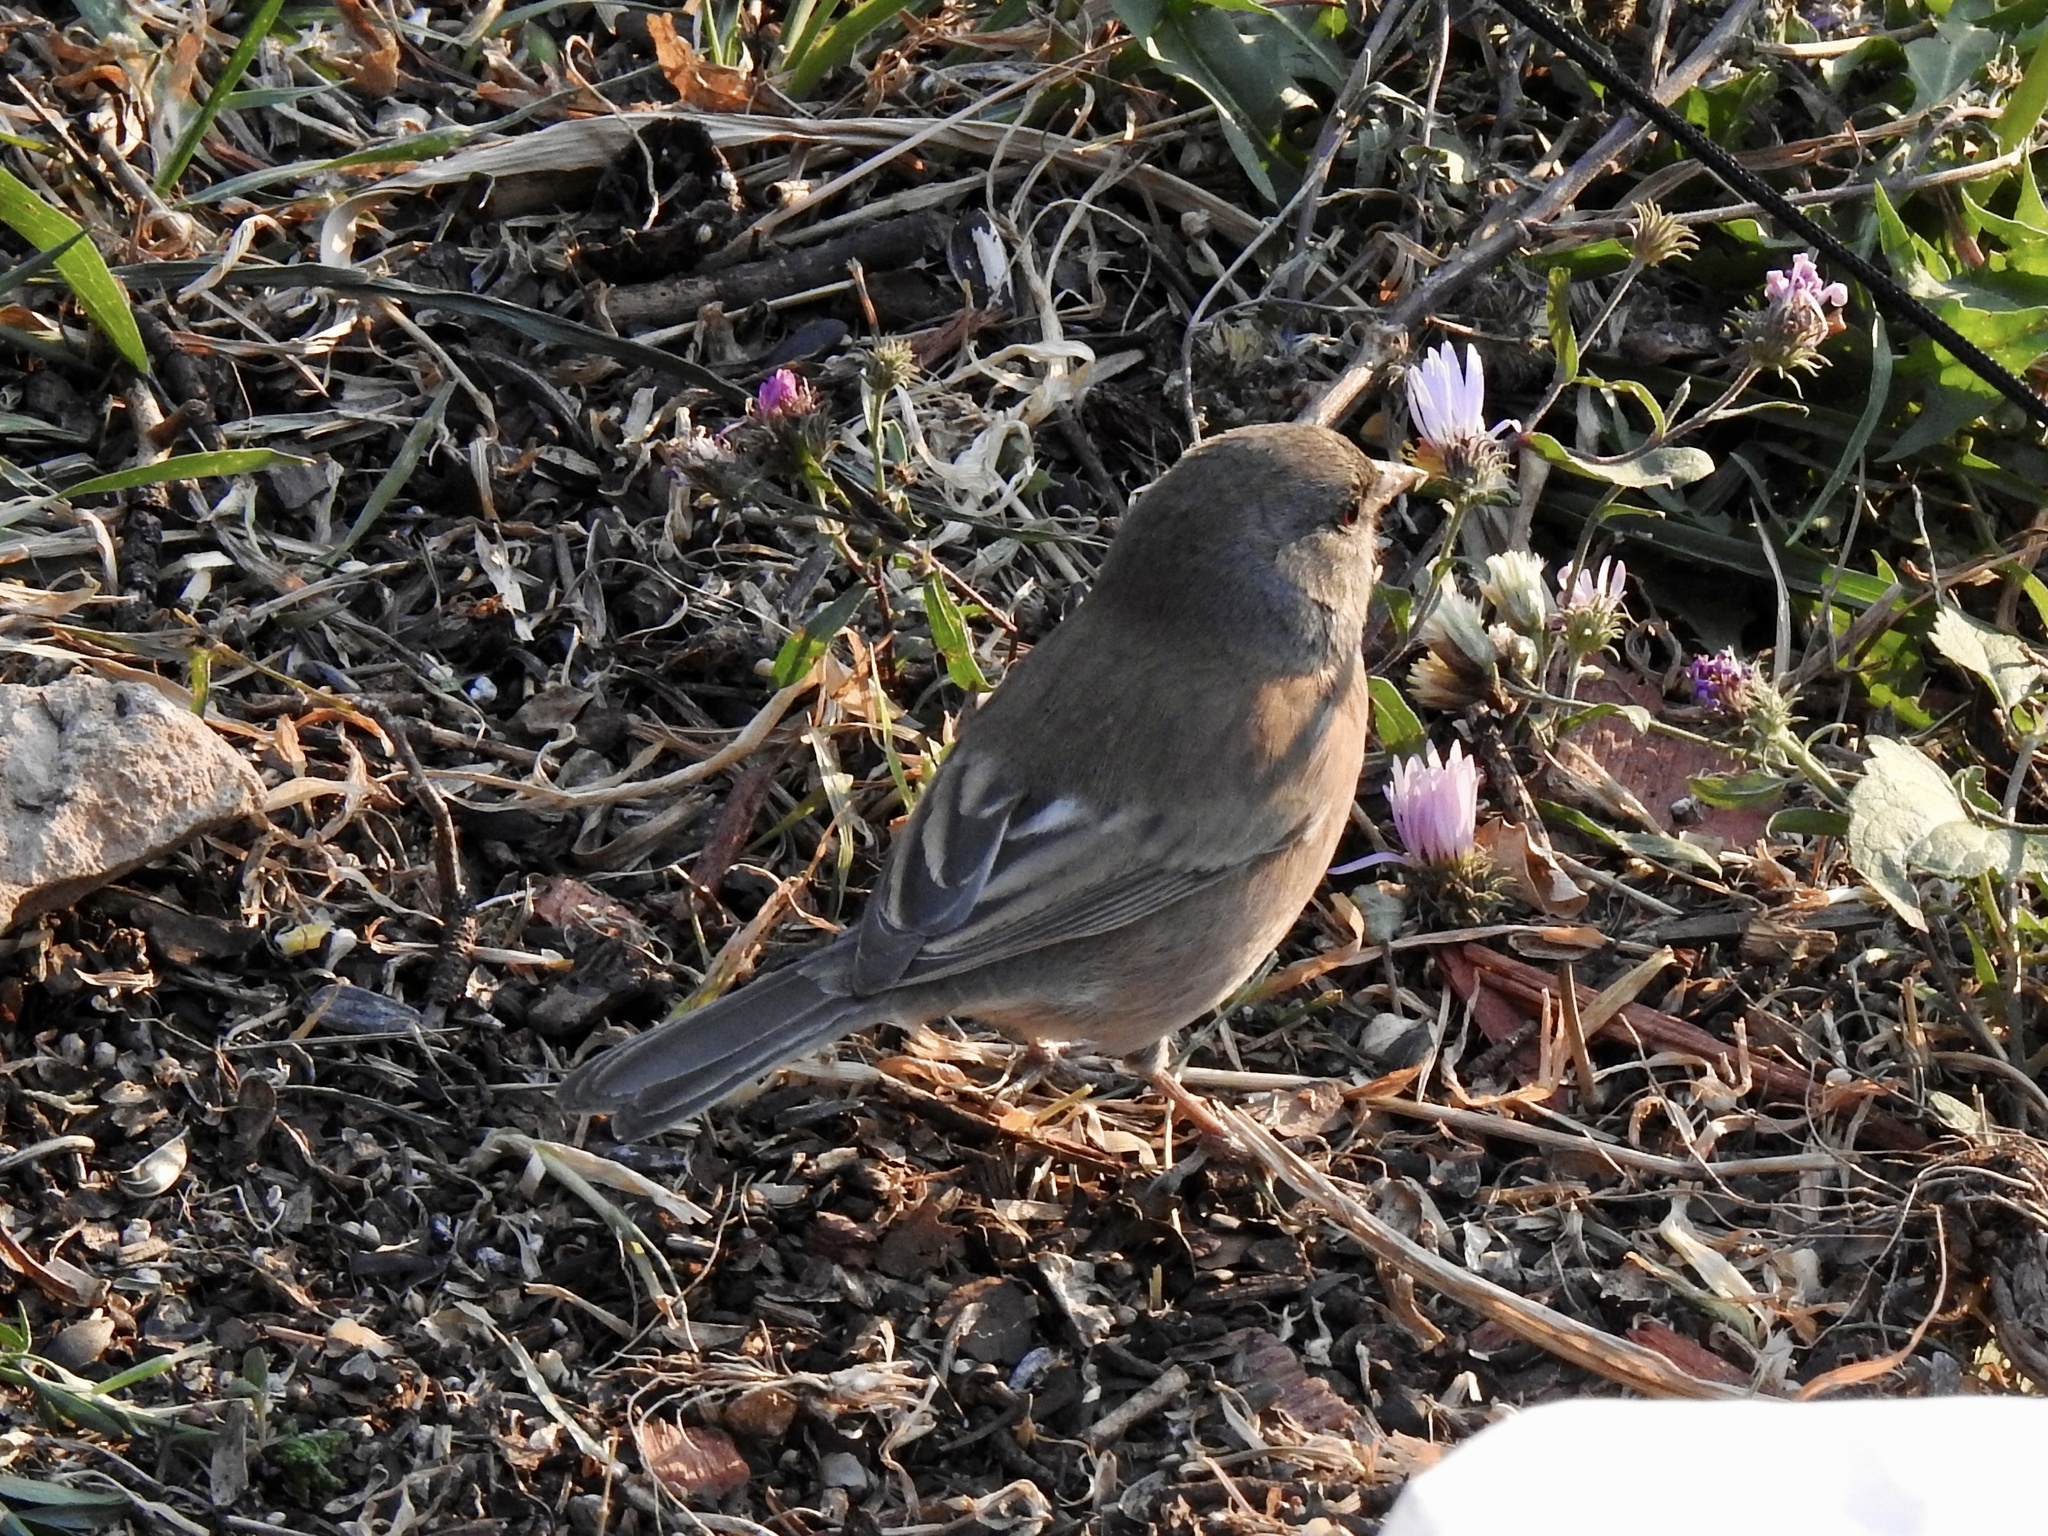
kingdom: Animalia
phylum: Chordata
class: Aves
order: Passeriformes
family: Passerellidae
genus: Junco
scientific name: Junco hyemalis
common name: Dark-eyed junco
